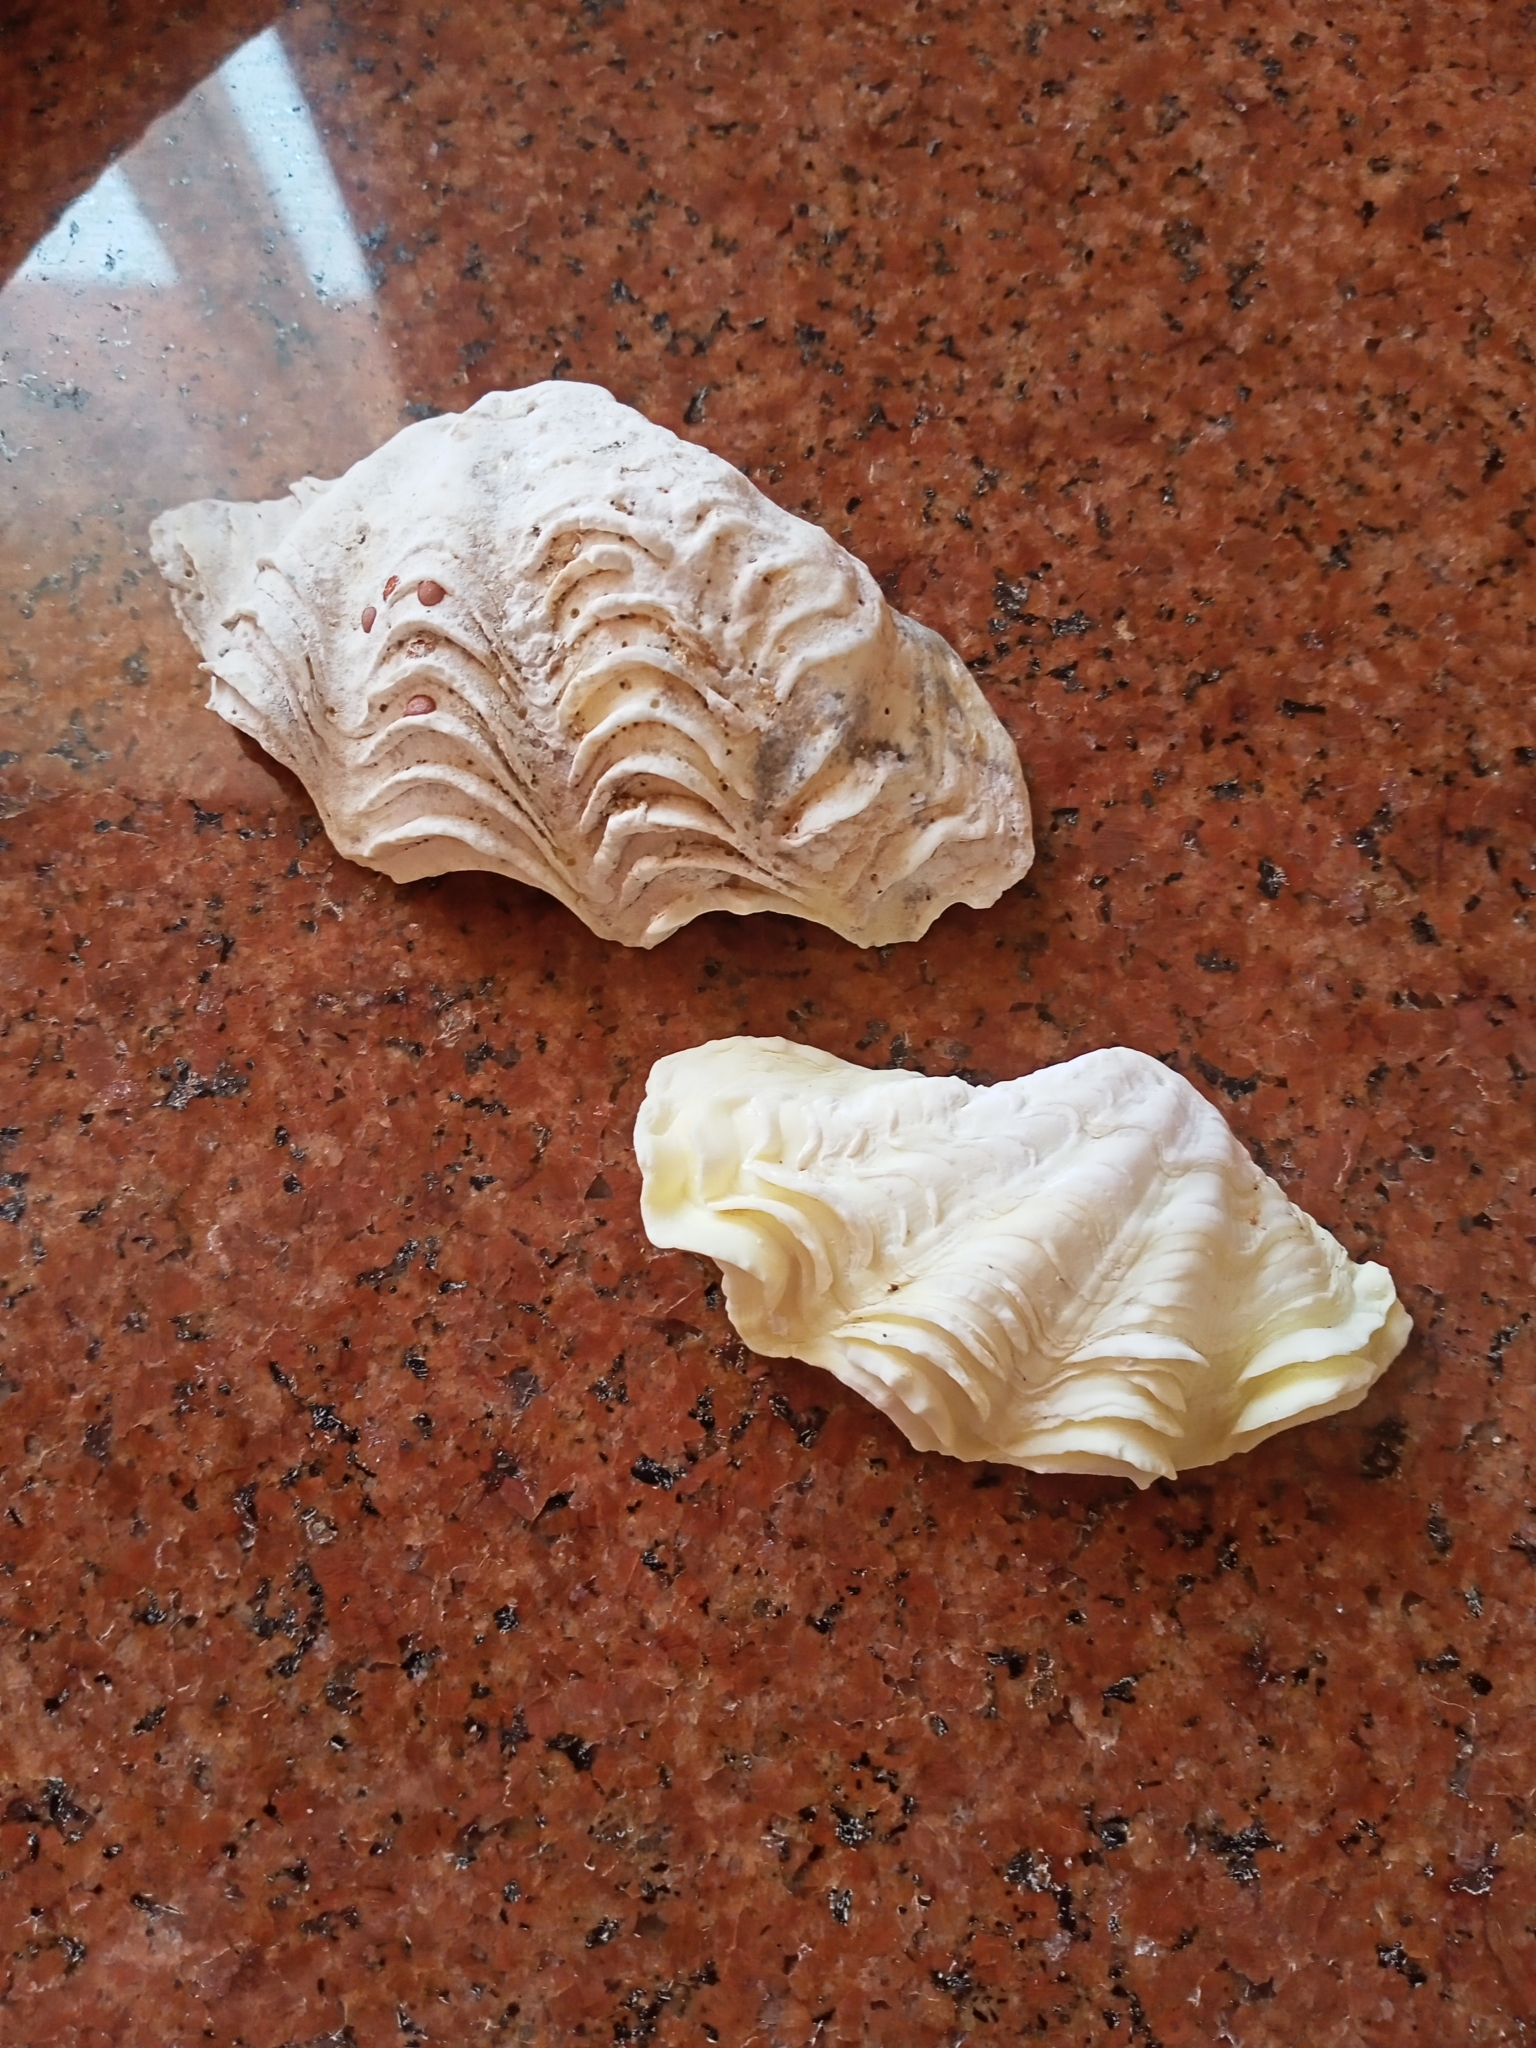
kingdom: Animalia
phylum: Mollusca
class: Bivalvia
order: Cardiida
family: Cardiidae
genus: Tridacna
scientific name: Tridacna maxima
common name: Small giant clam
